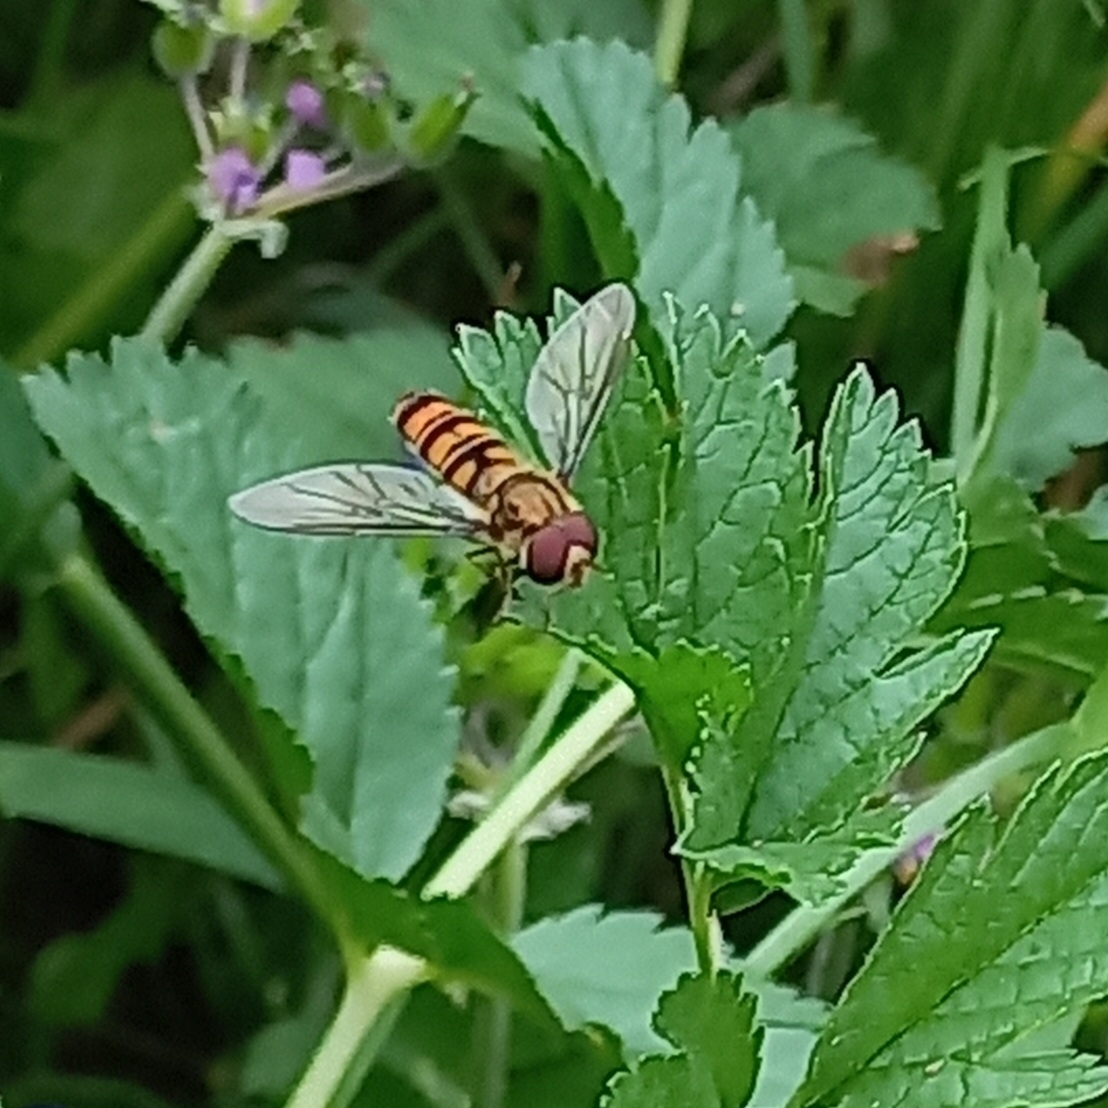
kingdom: Animalia
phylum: Arthropoda
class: Insecta
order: Diptera
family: Syrphidae
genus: Episyrphus
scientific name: Episyrphus balteatus
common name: Marmalade hoverfly
